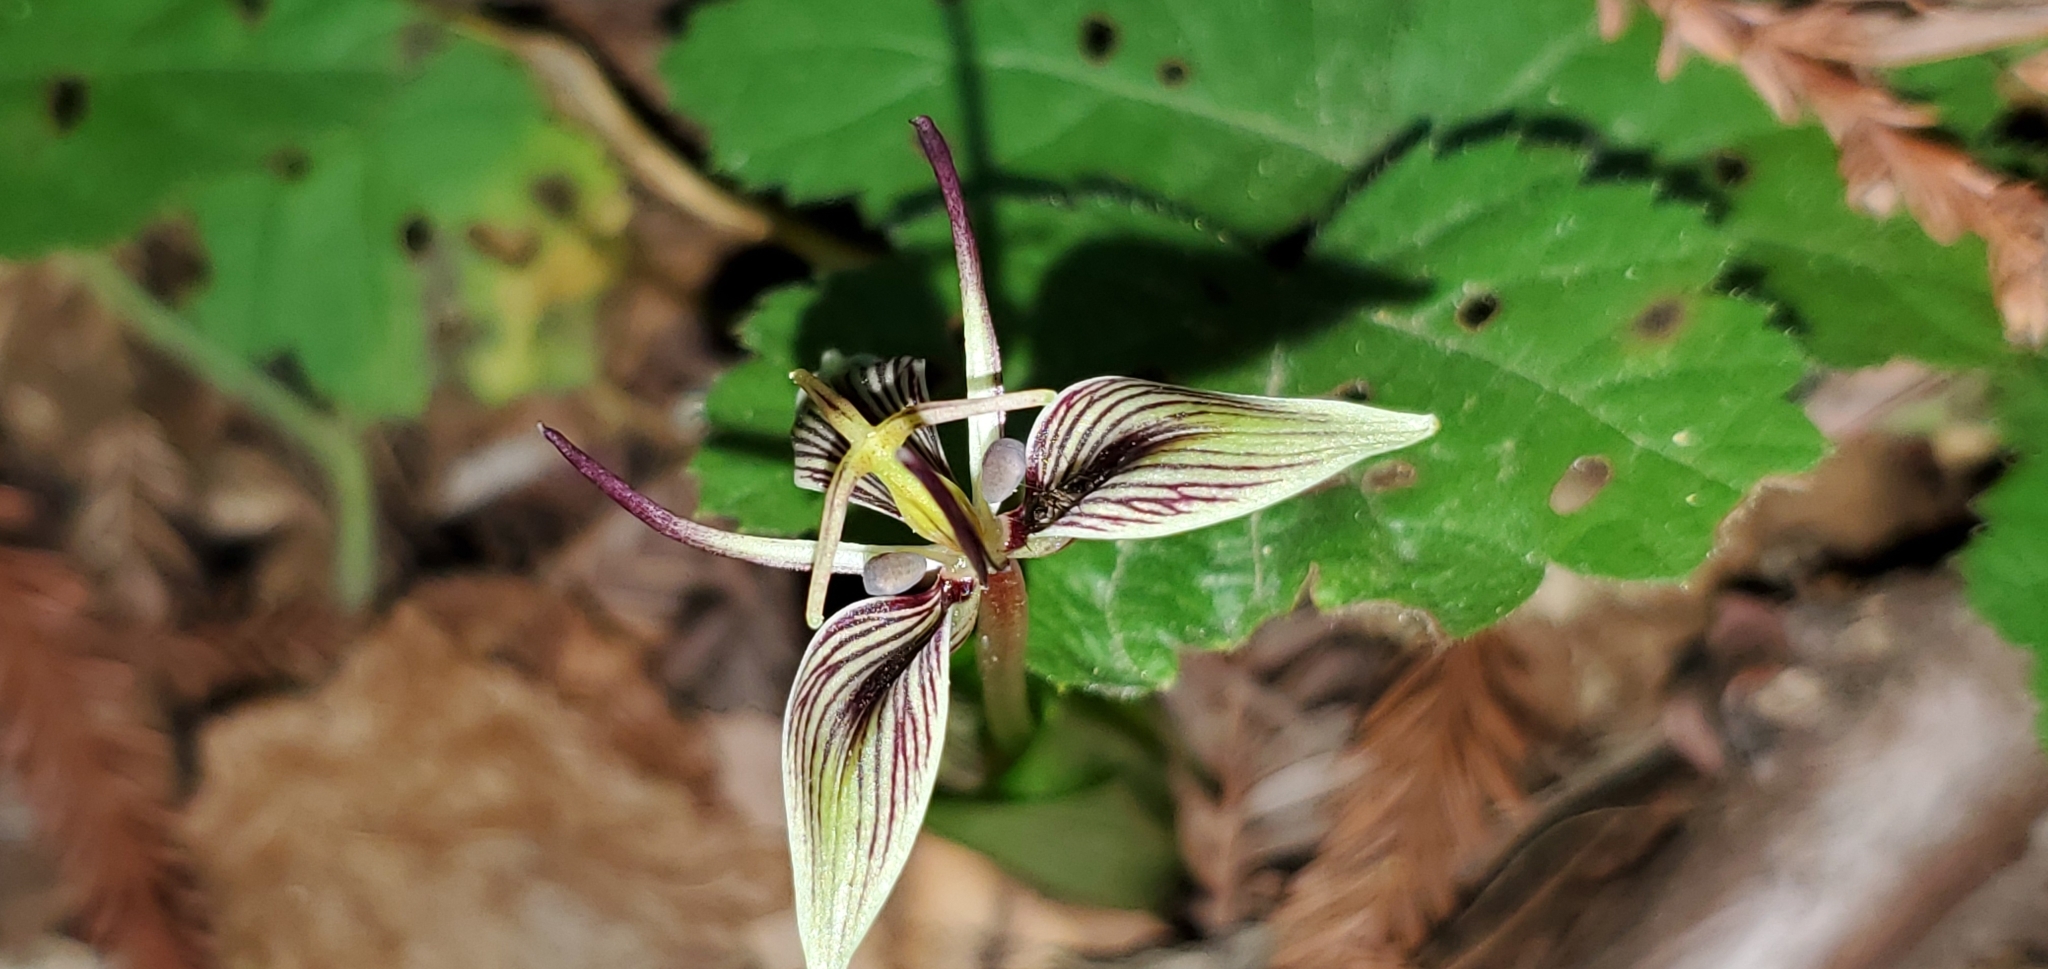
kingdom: Plantae
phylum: Tracheophyta
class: Liliopsida
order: Liliales
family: Liliaceae
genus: Scoliopus
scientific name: Scoliopus bigelovii
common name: Foetid adder's-tongue
